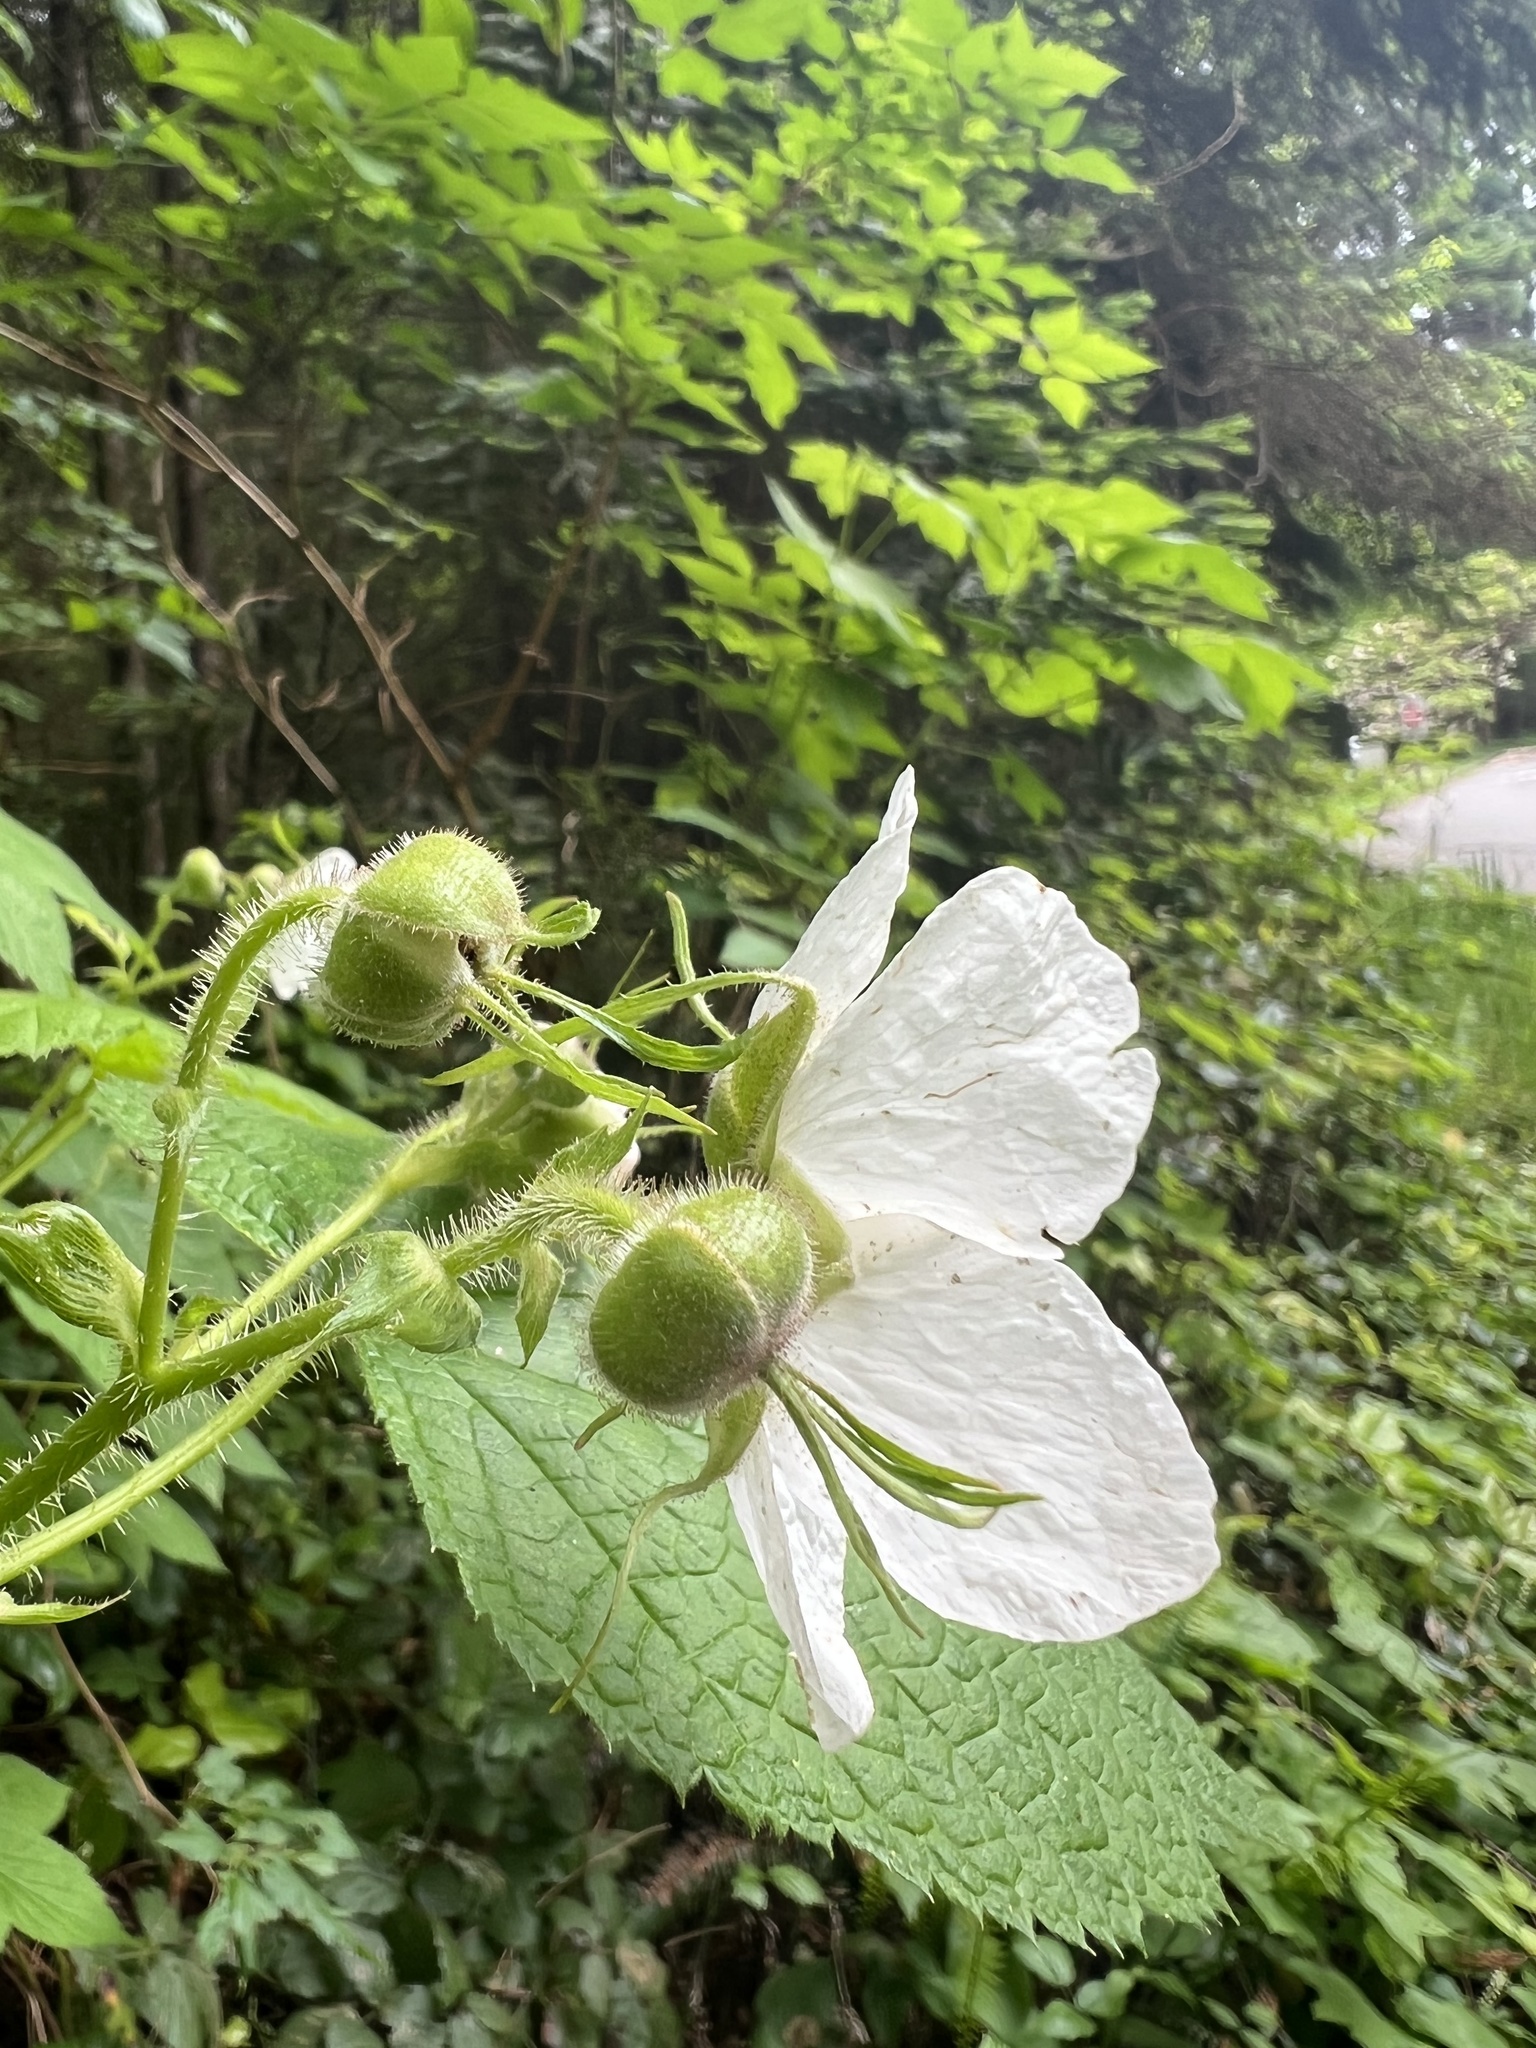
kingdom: Plantae
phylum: Tracheophyta
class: Magnoliopsida
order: Rosales
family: Rosaceae
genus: Rubus
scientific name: Rubus parviflorus
